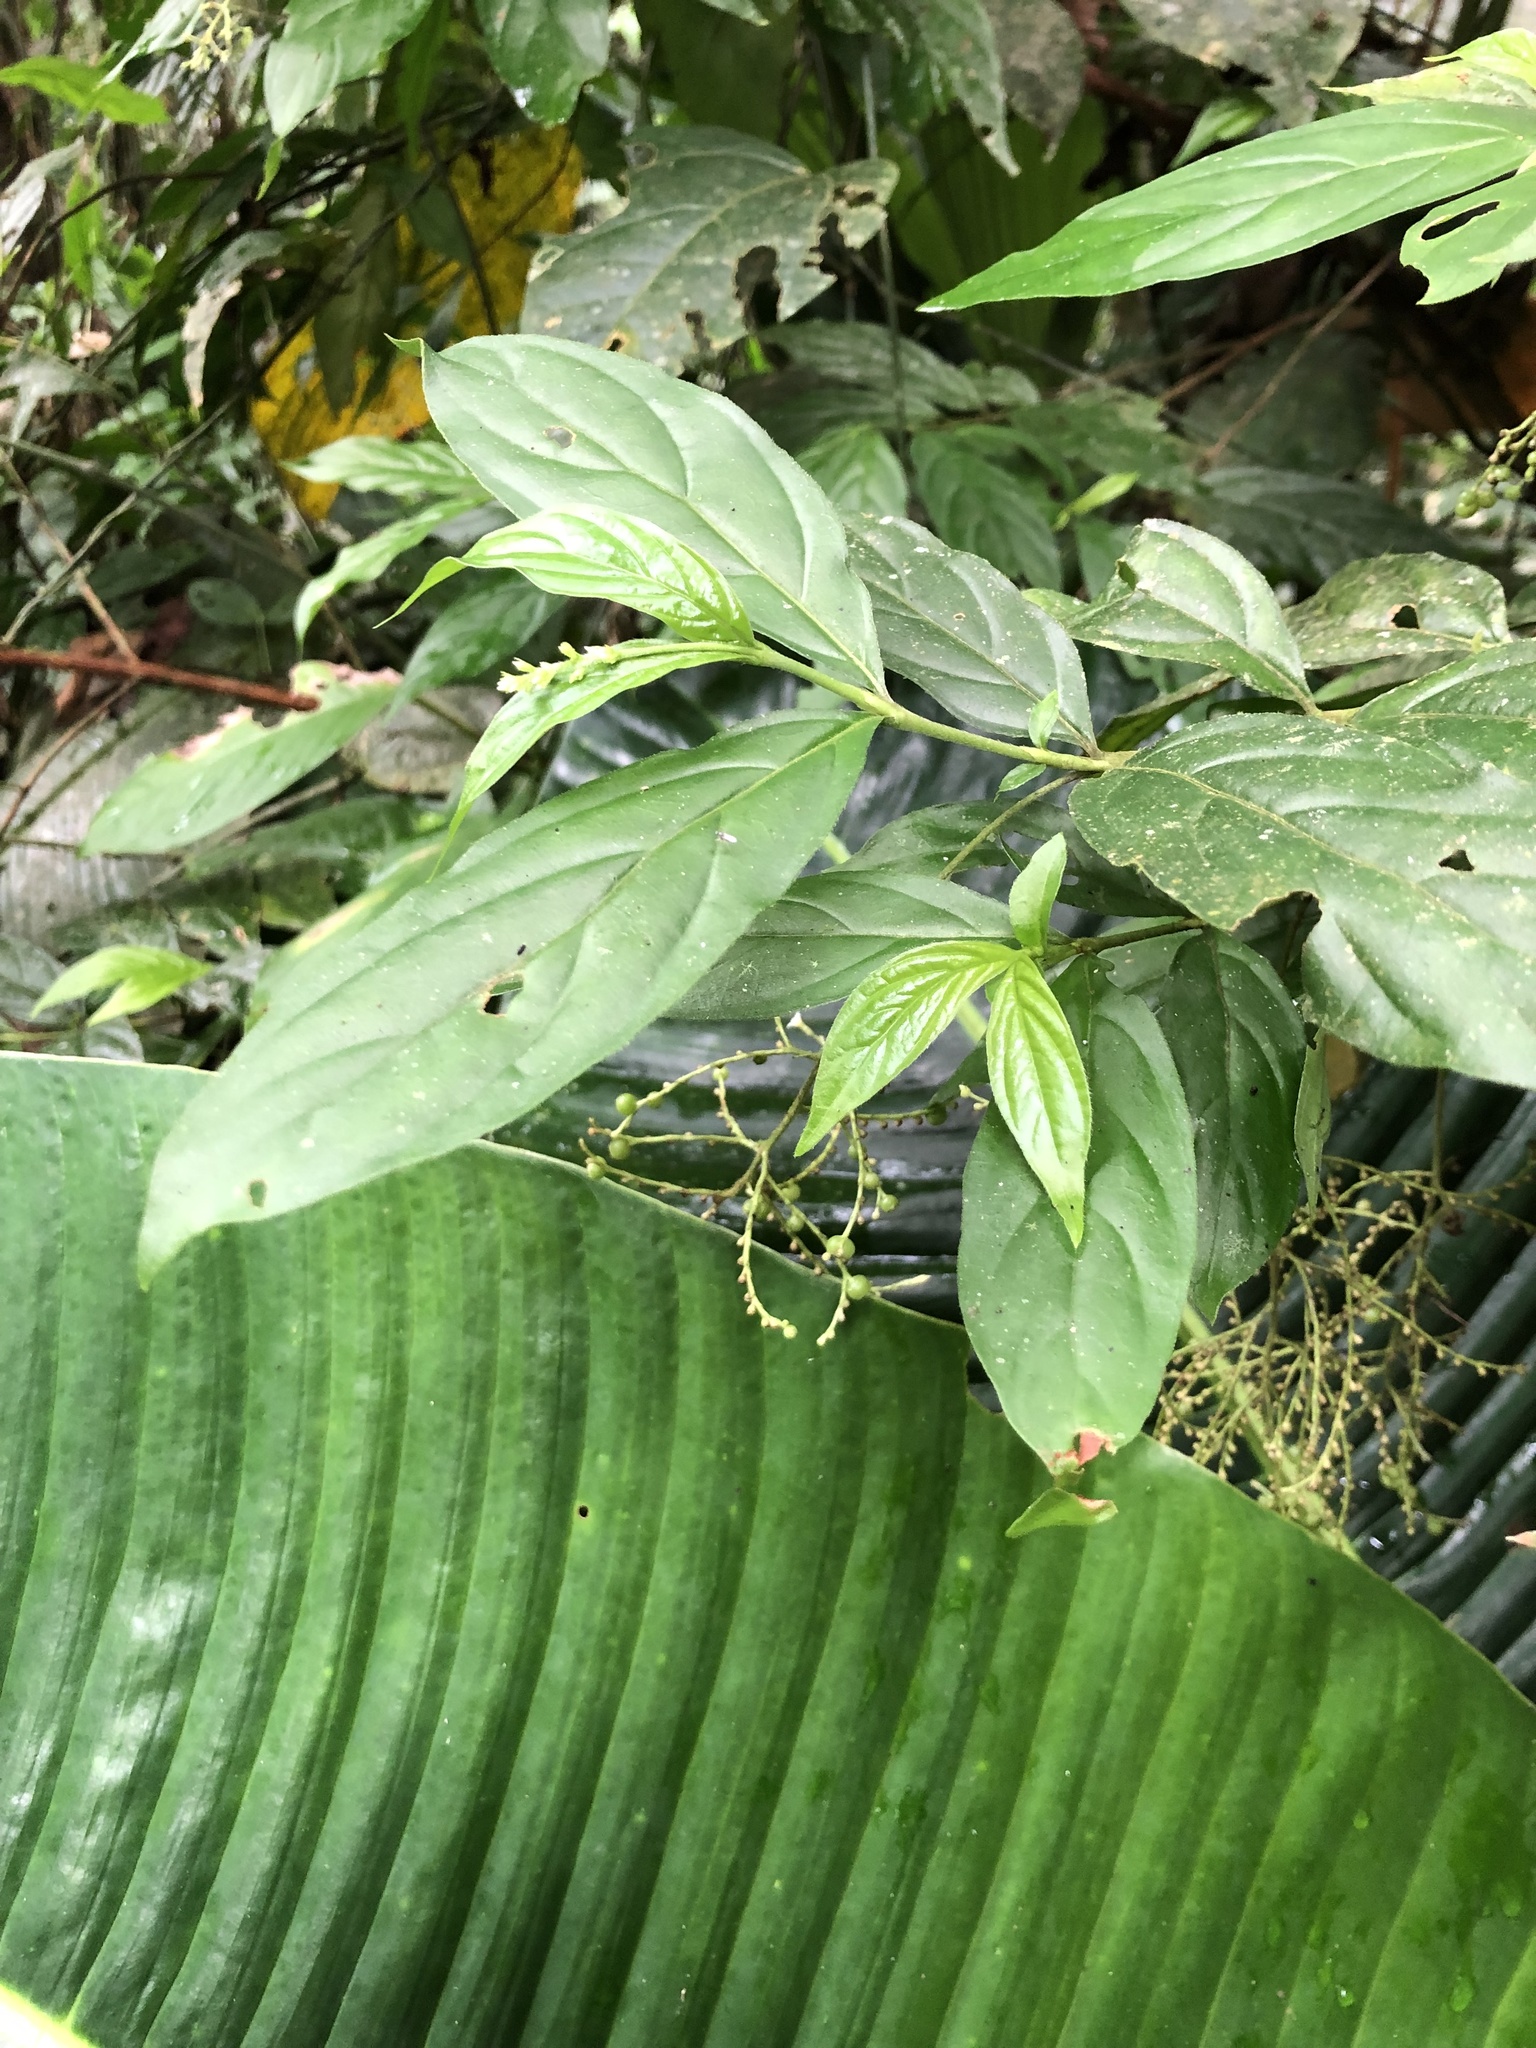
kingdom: Plantae
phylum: Tracheophyta
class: Magnoliopsida
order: Gentianales
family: Rubiaceae
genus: Bertiera
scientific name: Bertiera procumbens
